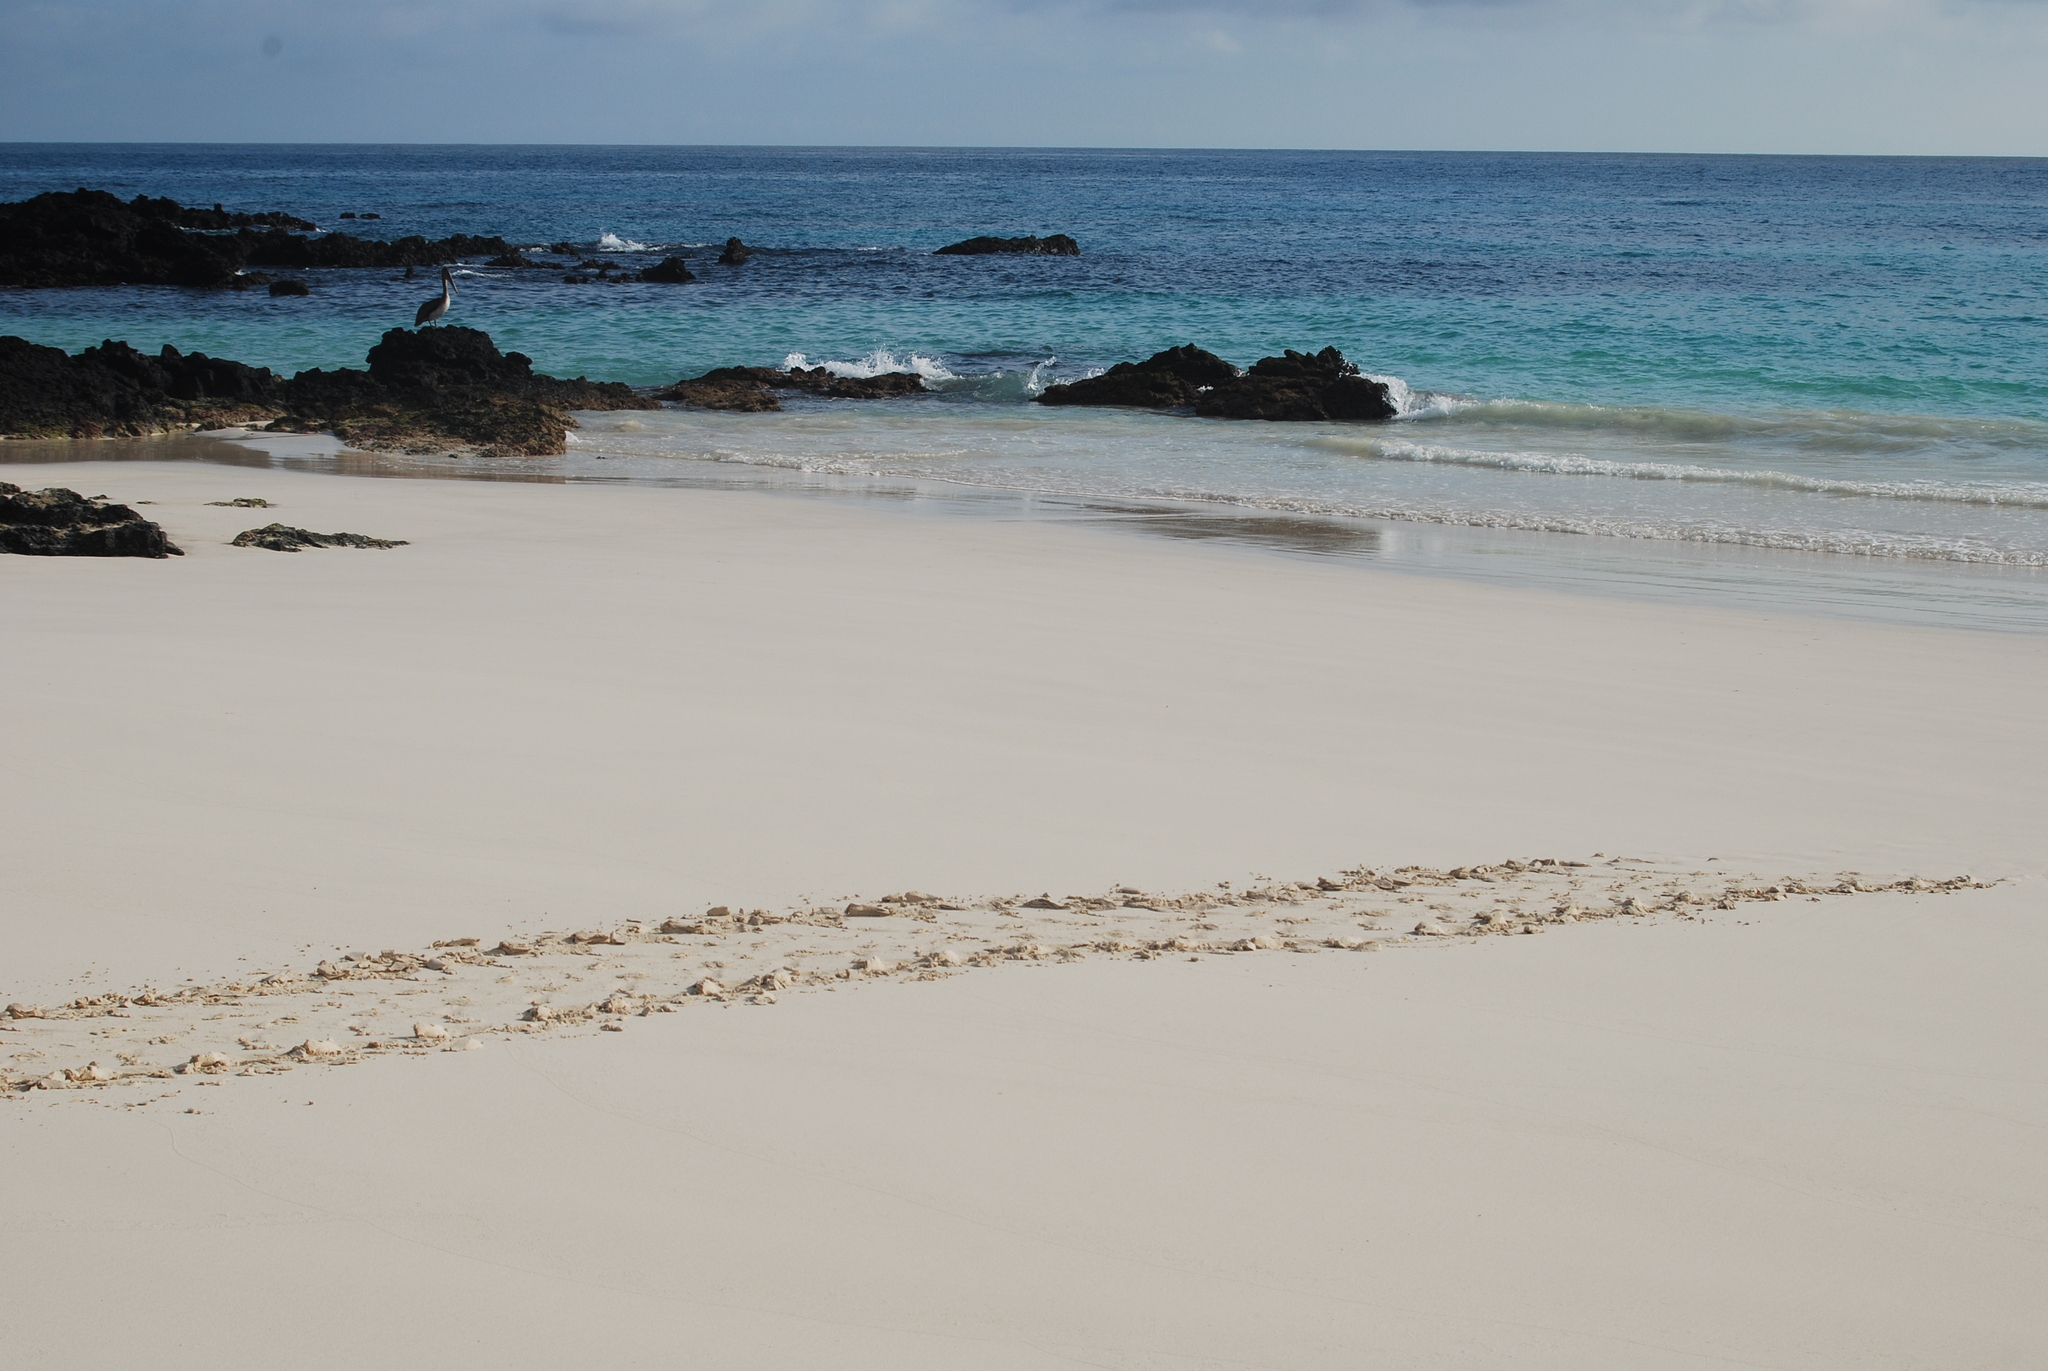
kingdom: Animalia
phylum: Chordata
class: Aves
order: Pelecaniformes
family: Pelecanidae
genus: Pelecanus
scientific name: Pelecanus occidentalis
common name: Brown pelican
